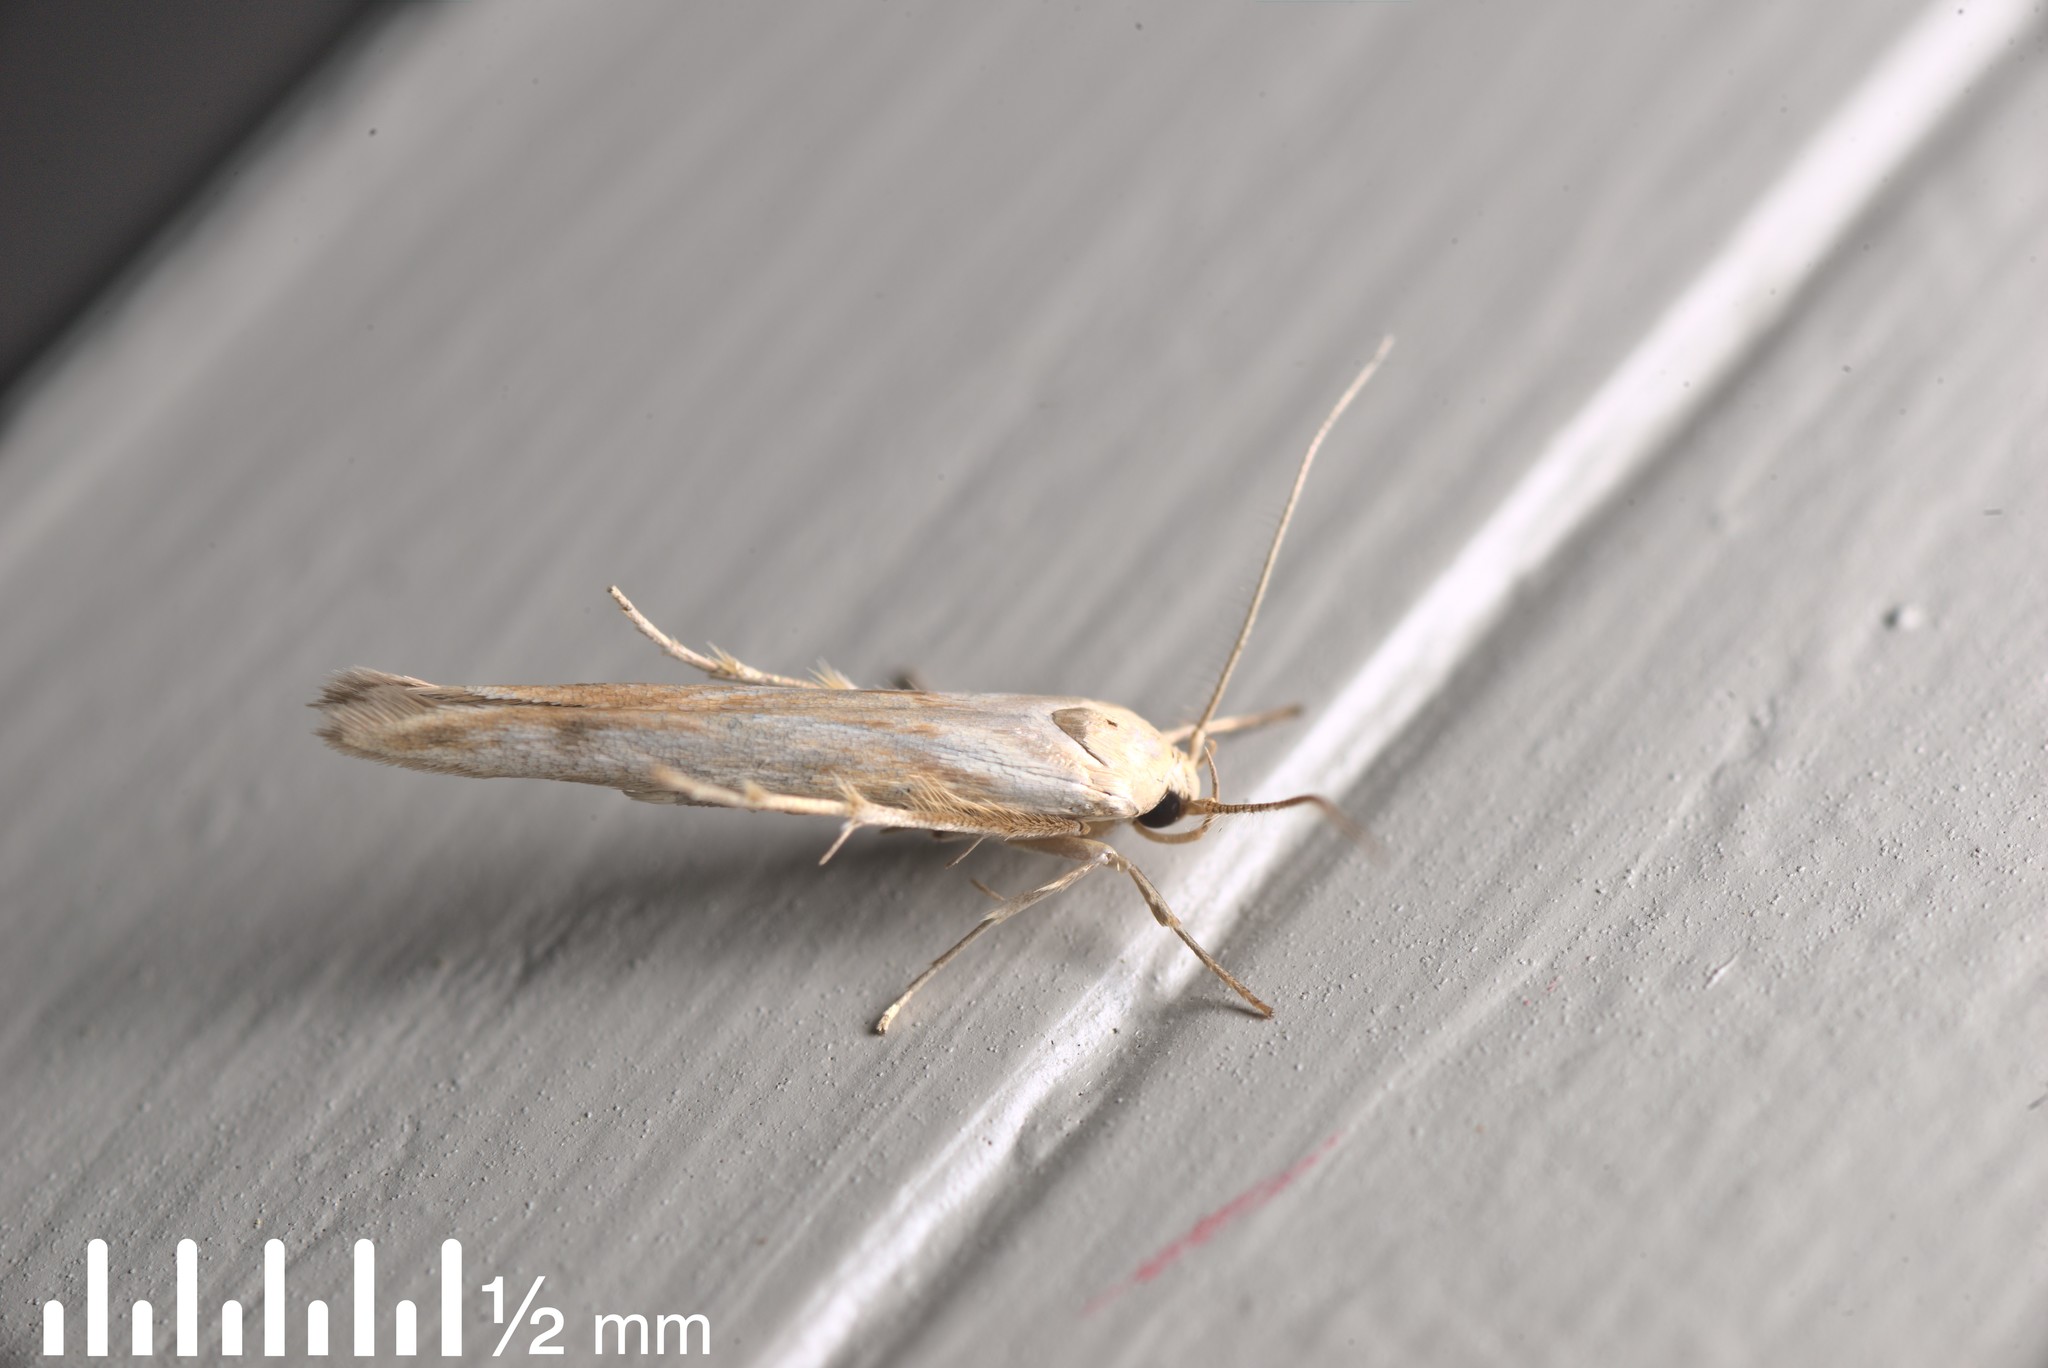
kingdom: Animalia
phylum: Arthropoda
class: Insecta
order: Lepidoptera
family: Stathmopodidae
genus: Stathmopoda
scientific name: Stathmopoda aposema
